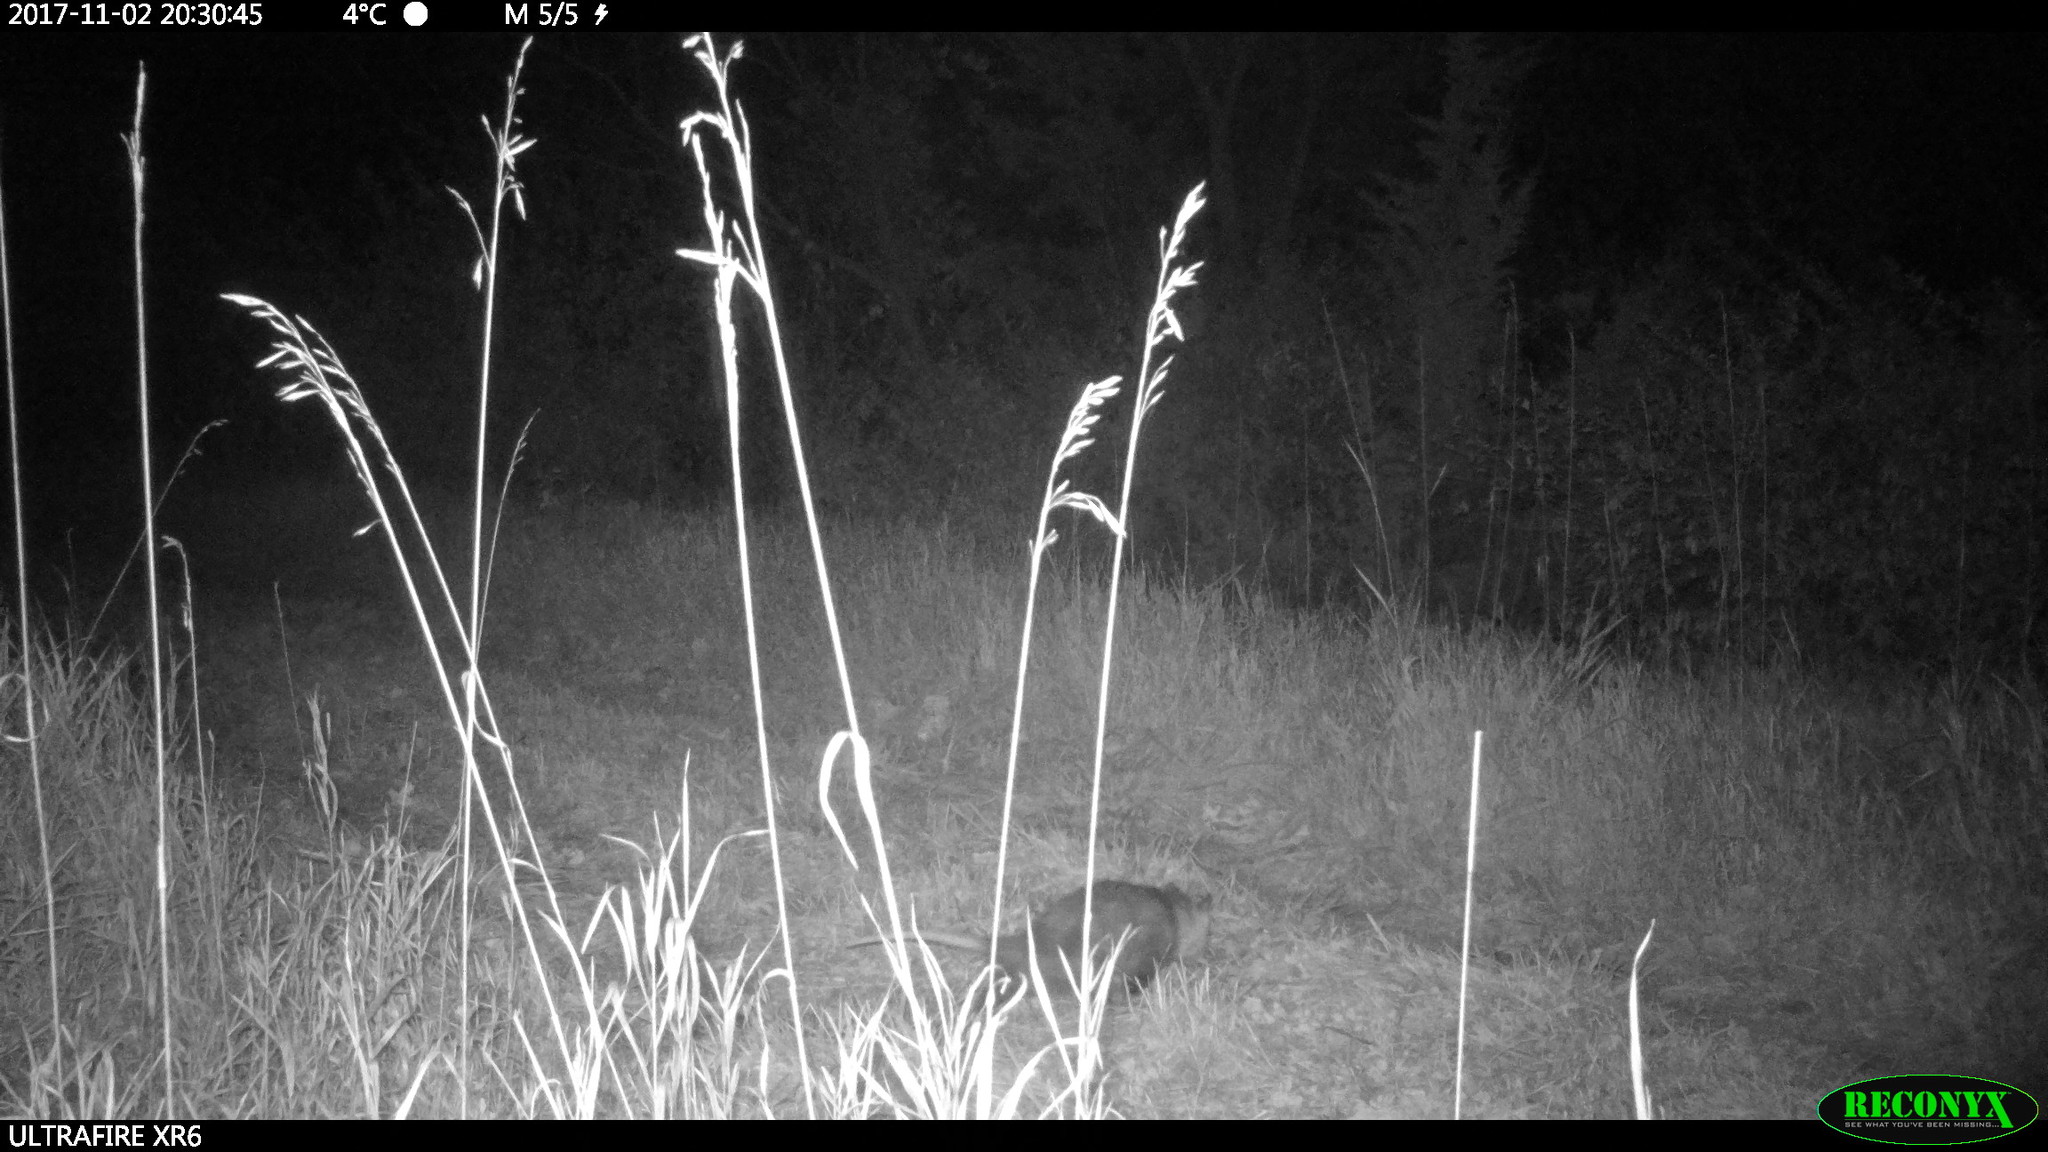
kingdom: Animalia
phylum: Chordata
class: Mammalia
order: Didelphimorphia
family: Didelphidae
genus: Didelphis
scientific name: Didelphis virginiana
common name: Virginia opossum
